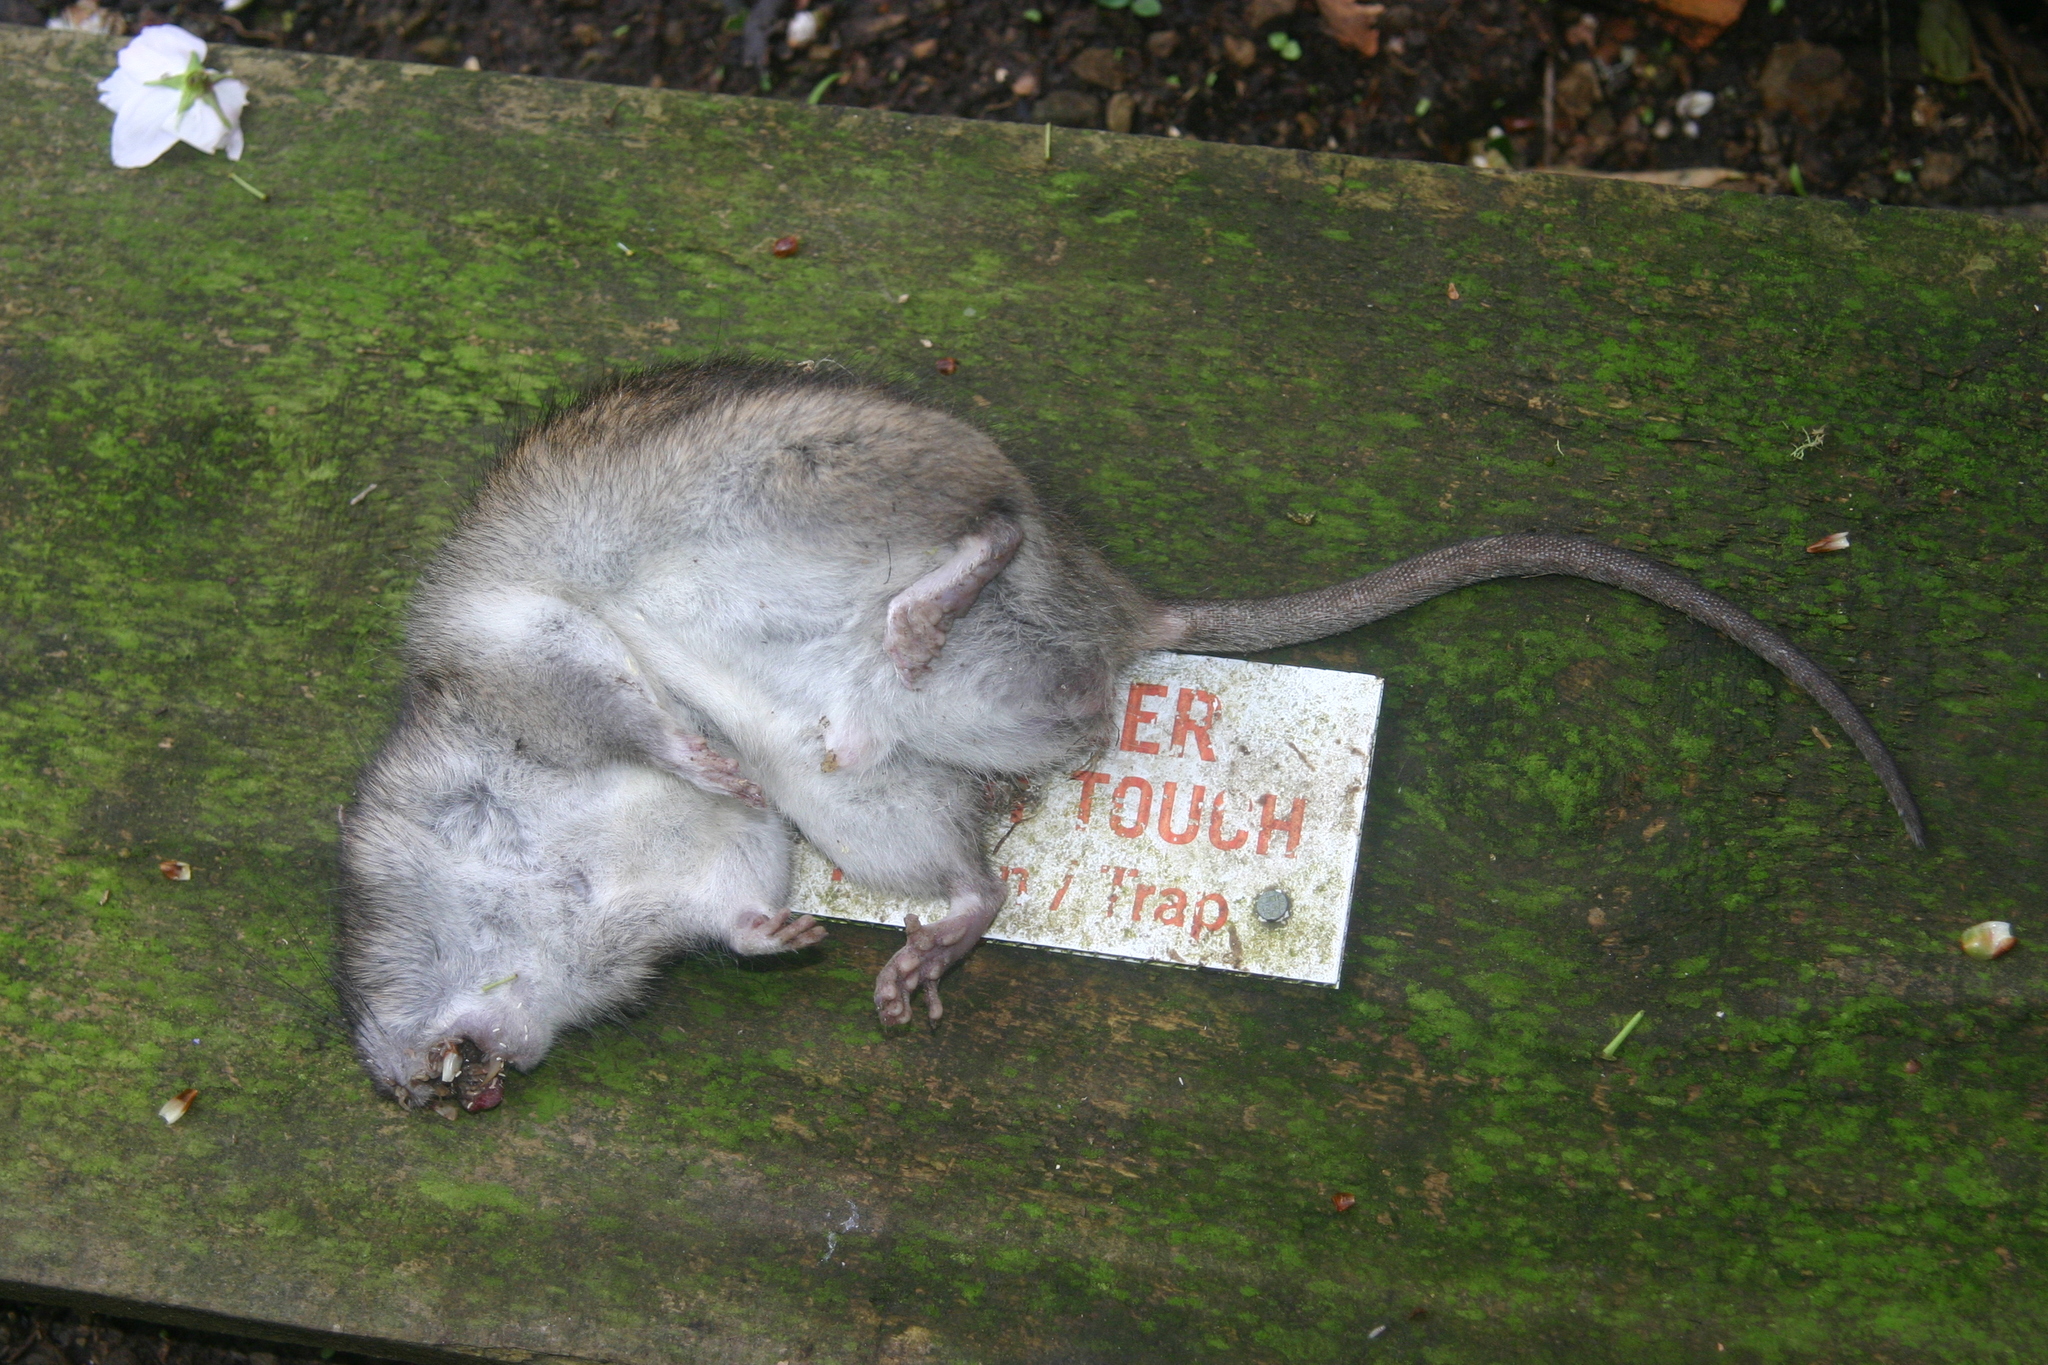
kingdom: Animalia
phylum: Chordata
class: Mammalia
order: Rodentia
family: Muridae
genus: Rattus
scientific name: Rattus norvegicus
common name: Brown rat
